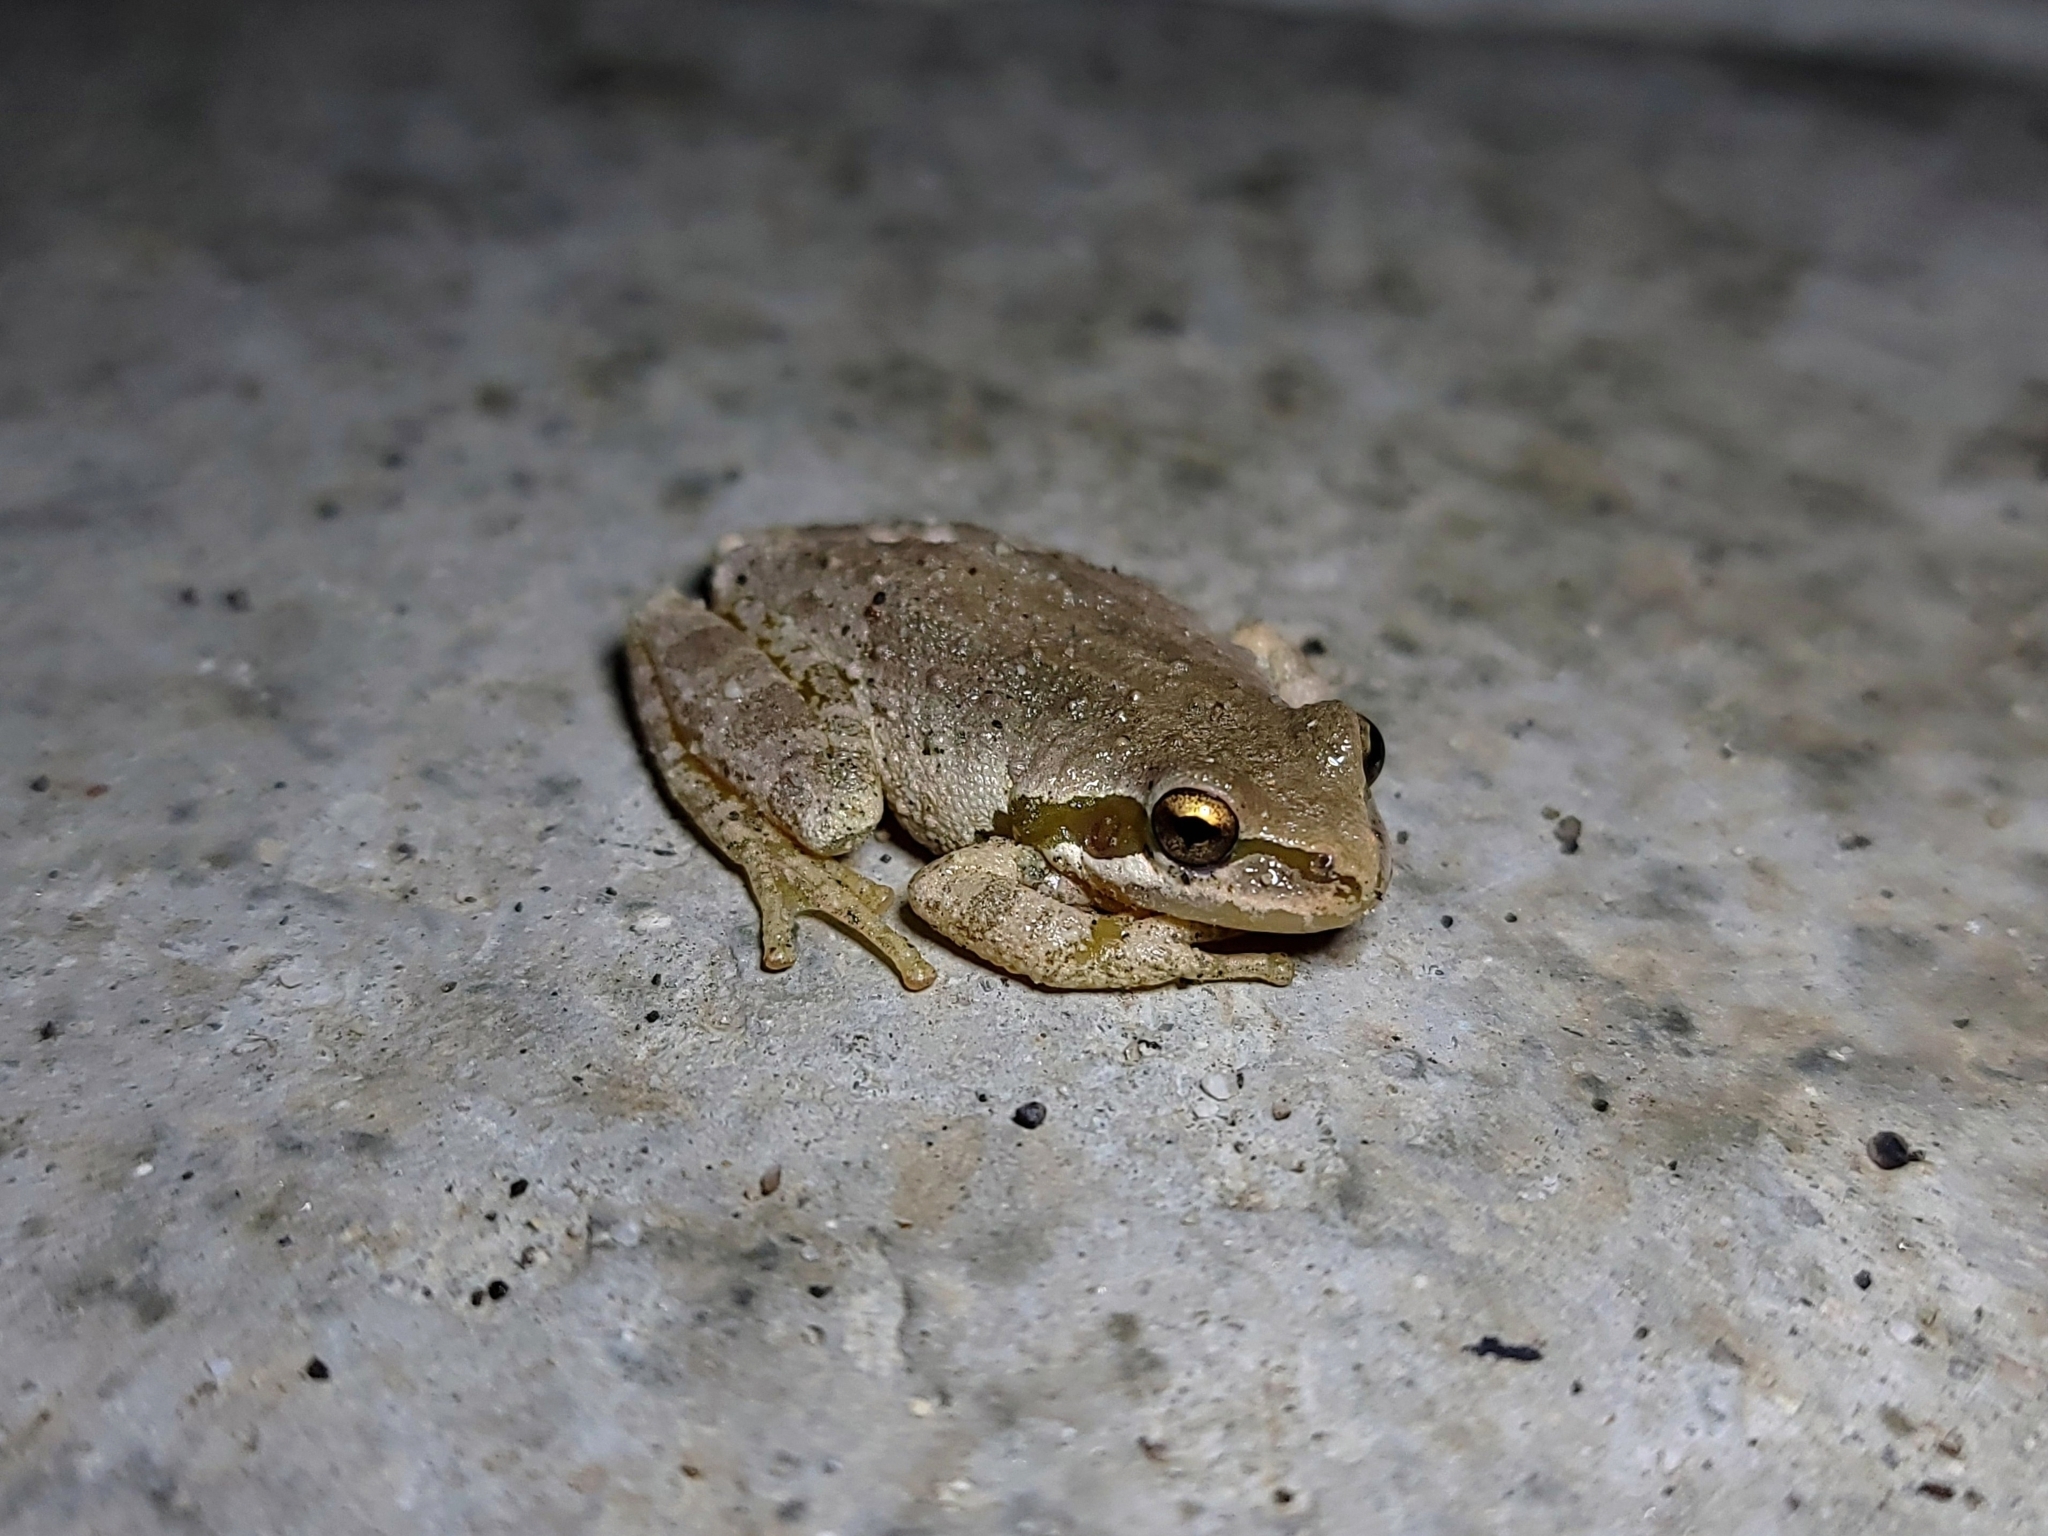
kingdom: Animalia
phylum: Chordata
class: Amphibia
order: Anura
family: Hylidae
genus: Pseudacris
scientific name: Pseudacris regilla
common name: Pacific chorus frog
